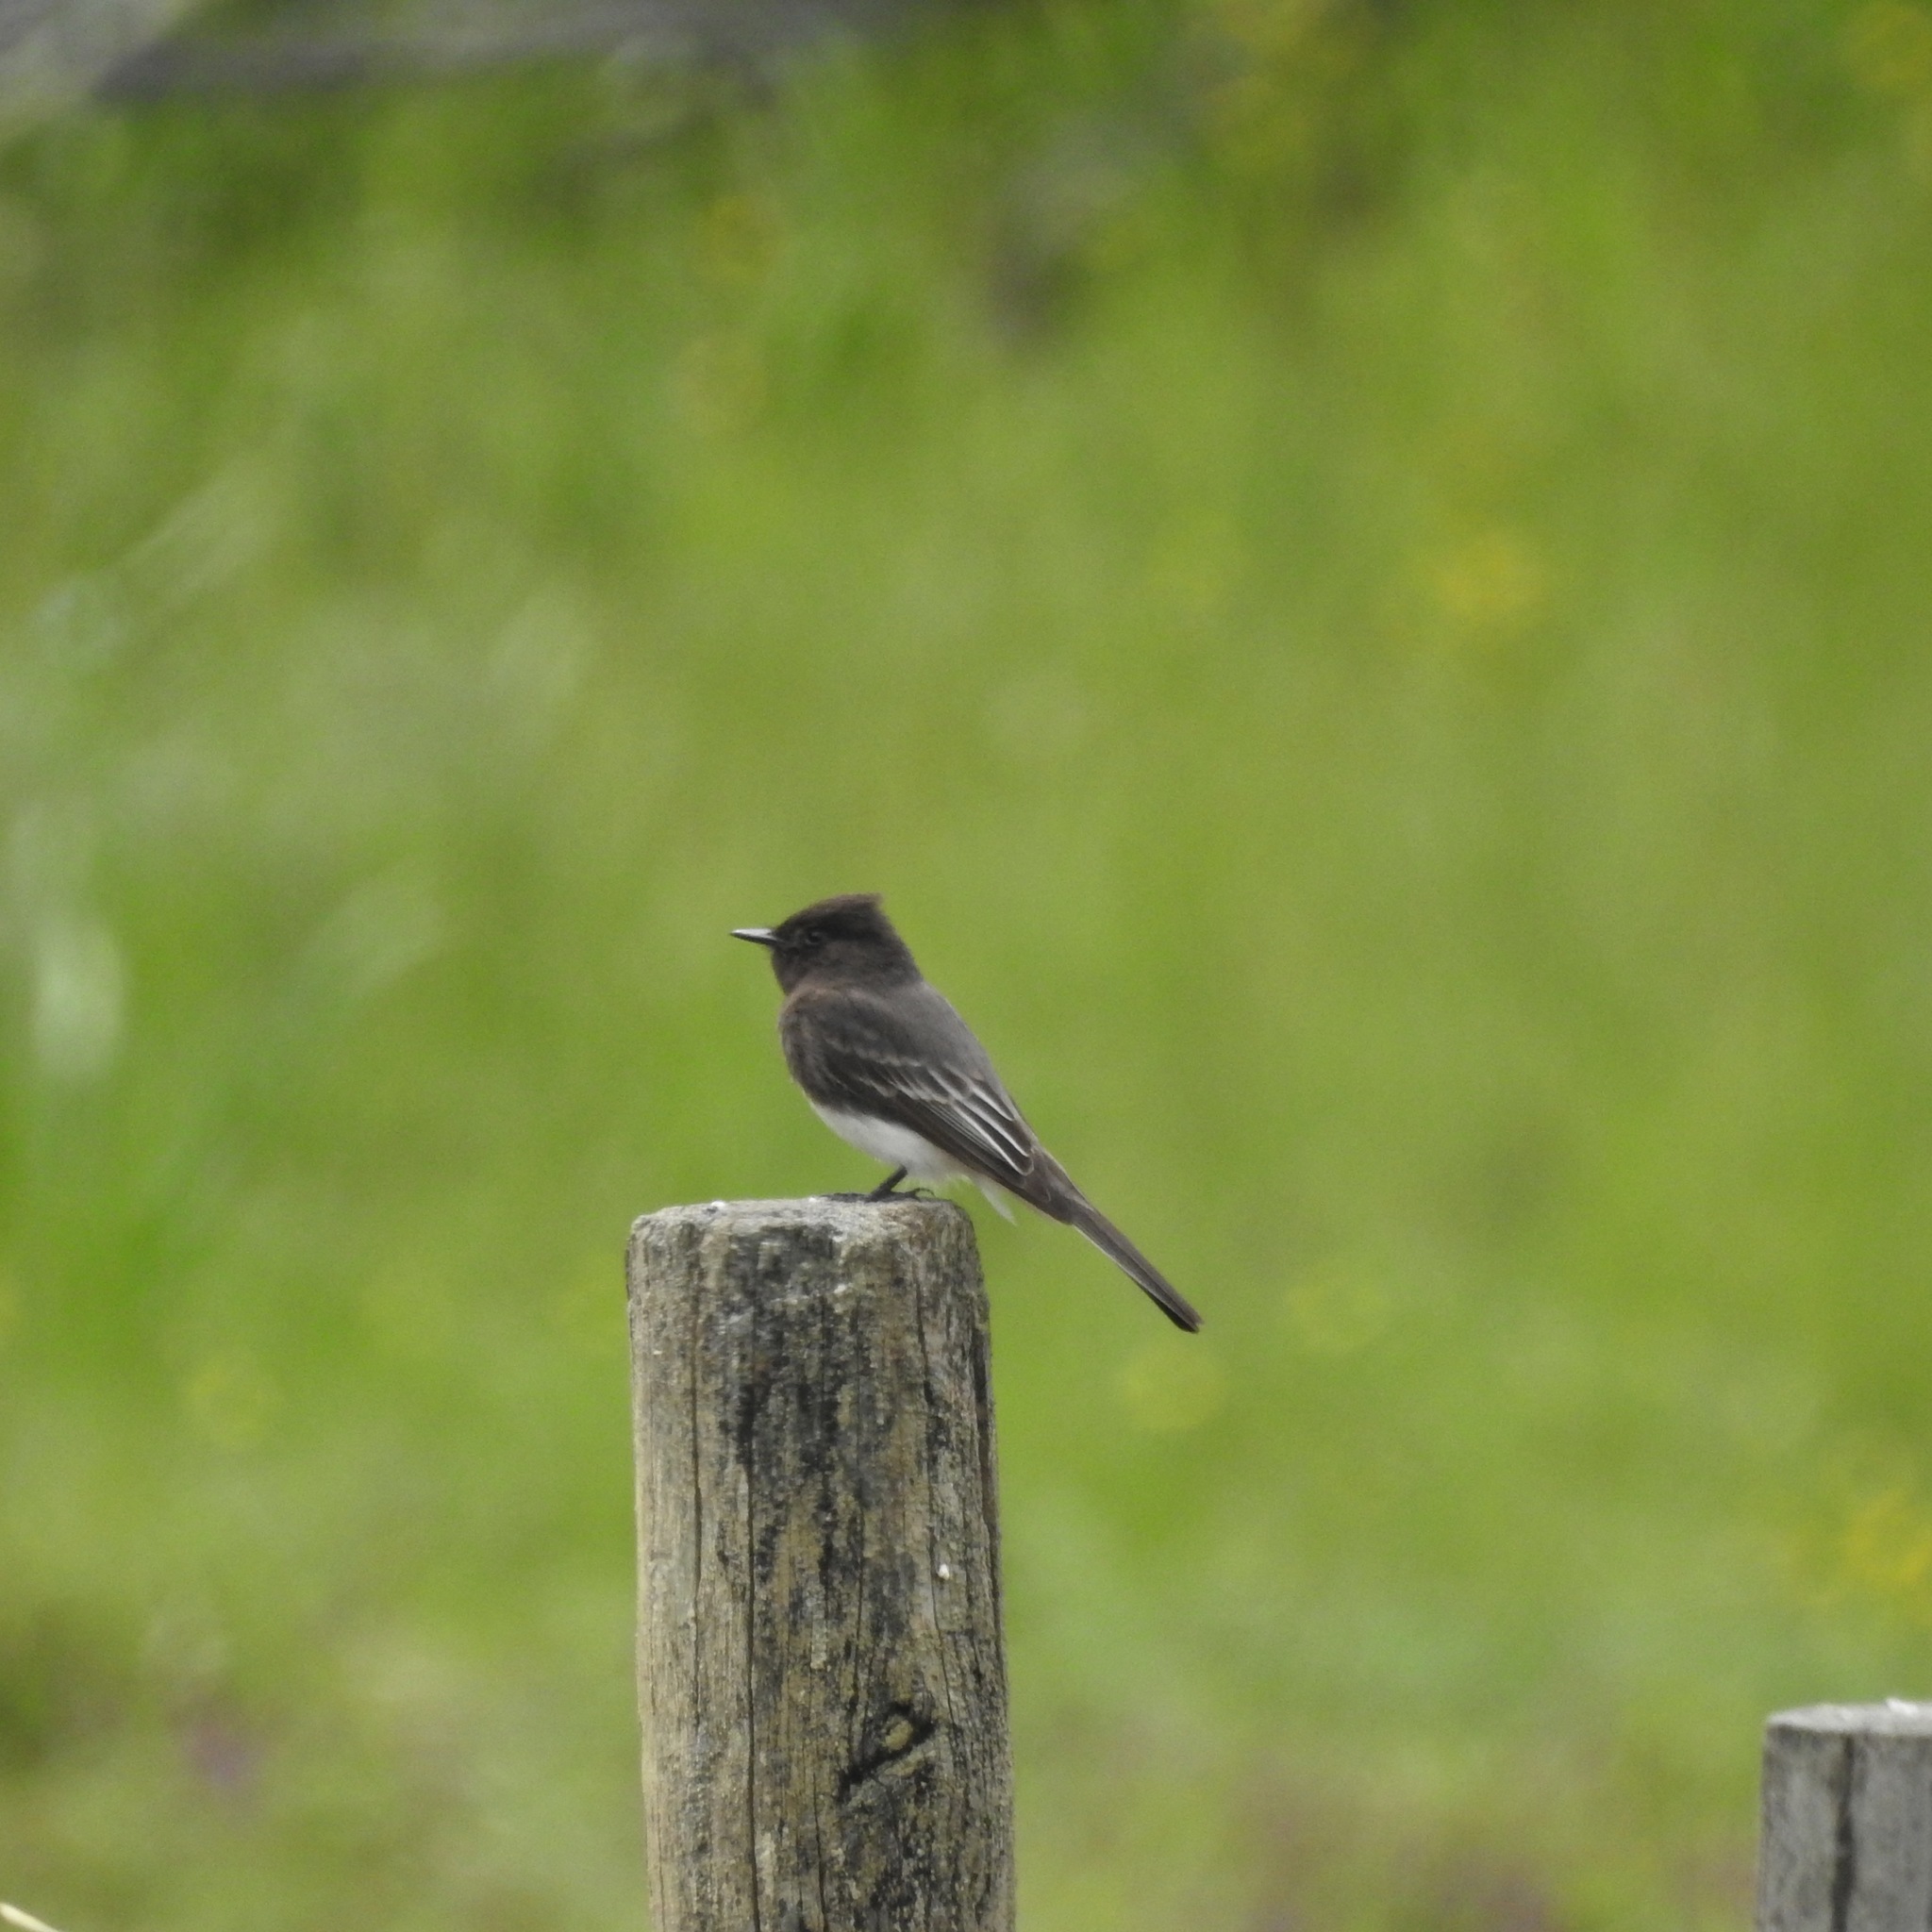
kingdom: Animalia
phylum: Chordata
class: Aves
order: Passeriformes
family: Tyrannidae
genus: Sayornis
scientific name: Sayornis nigricans
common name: Black phoebe
